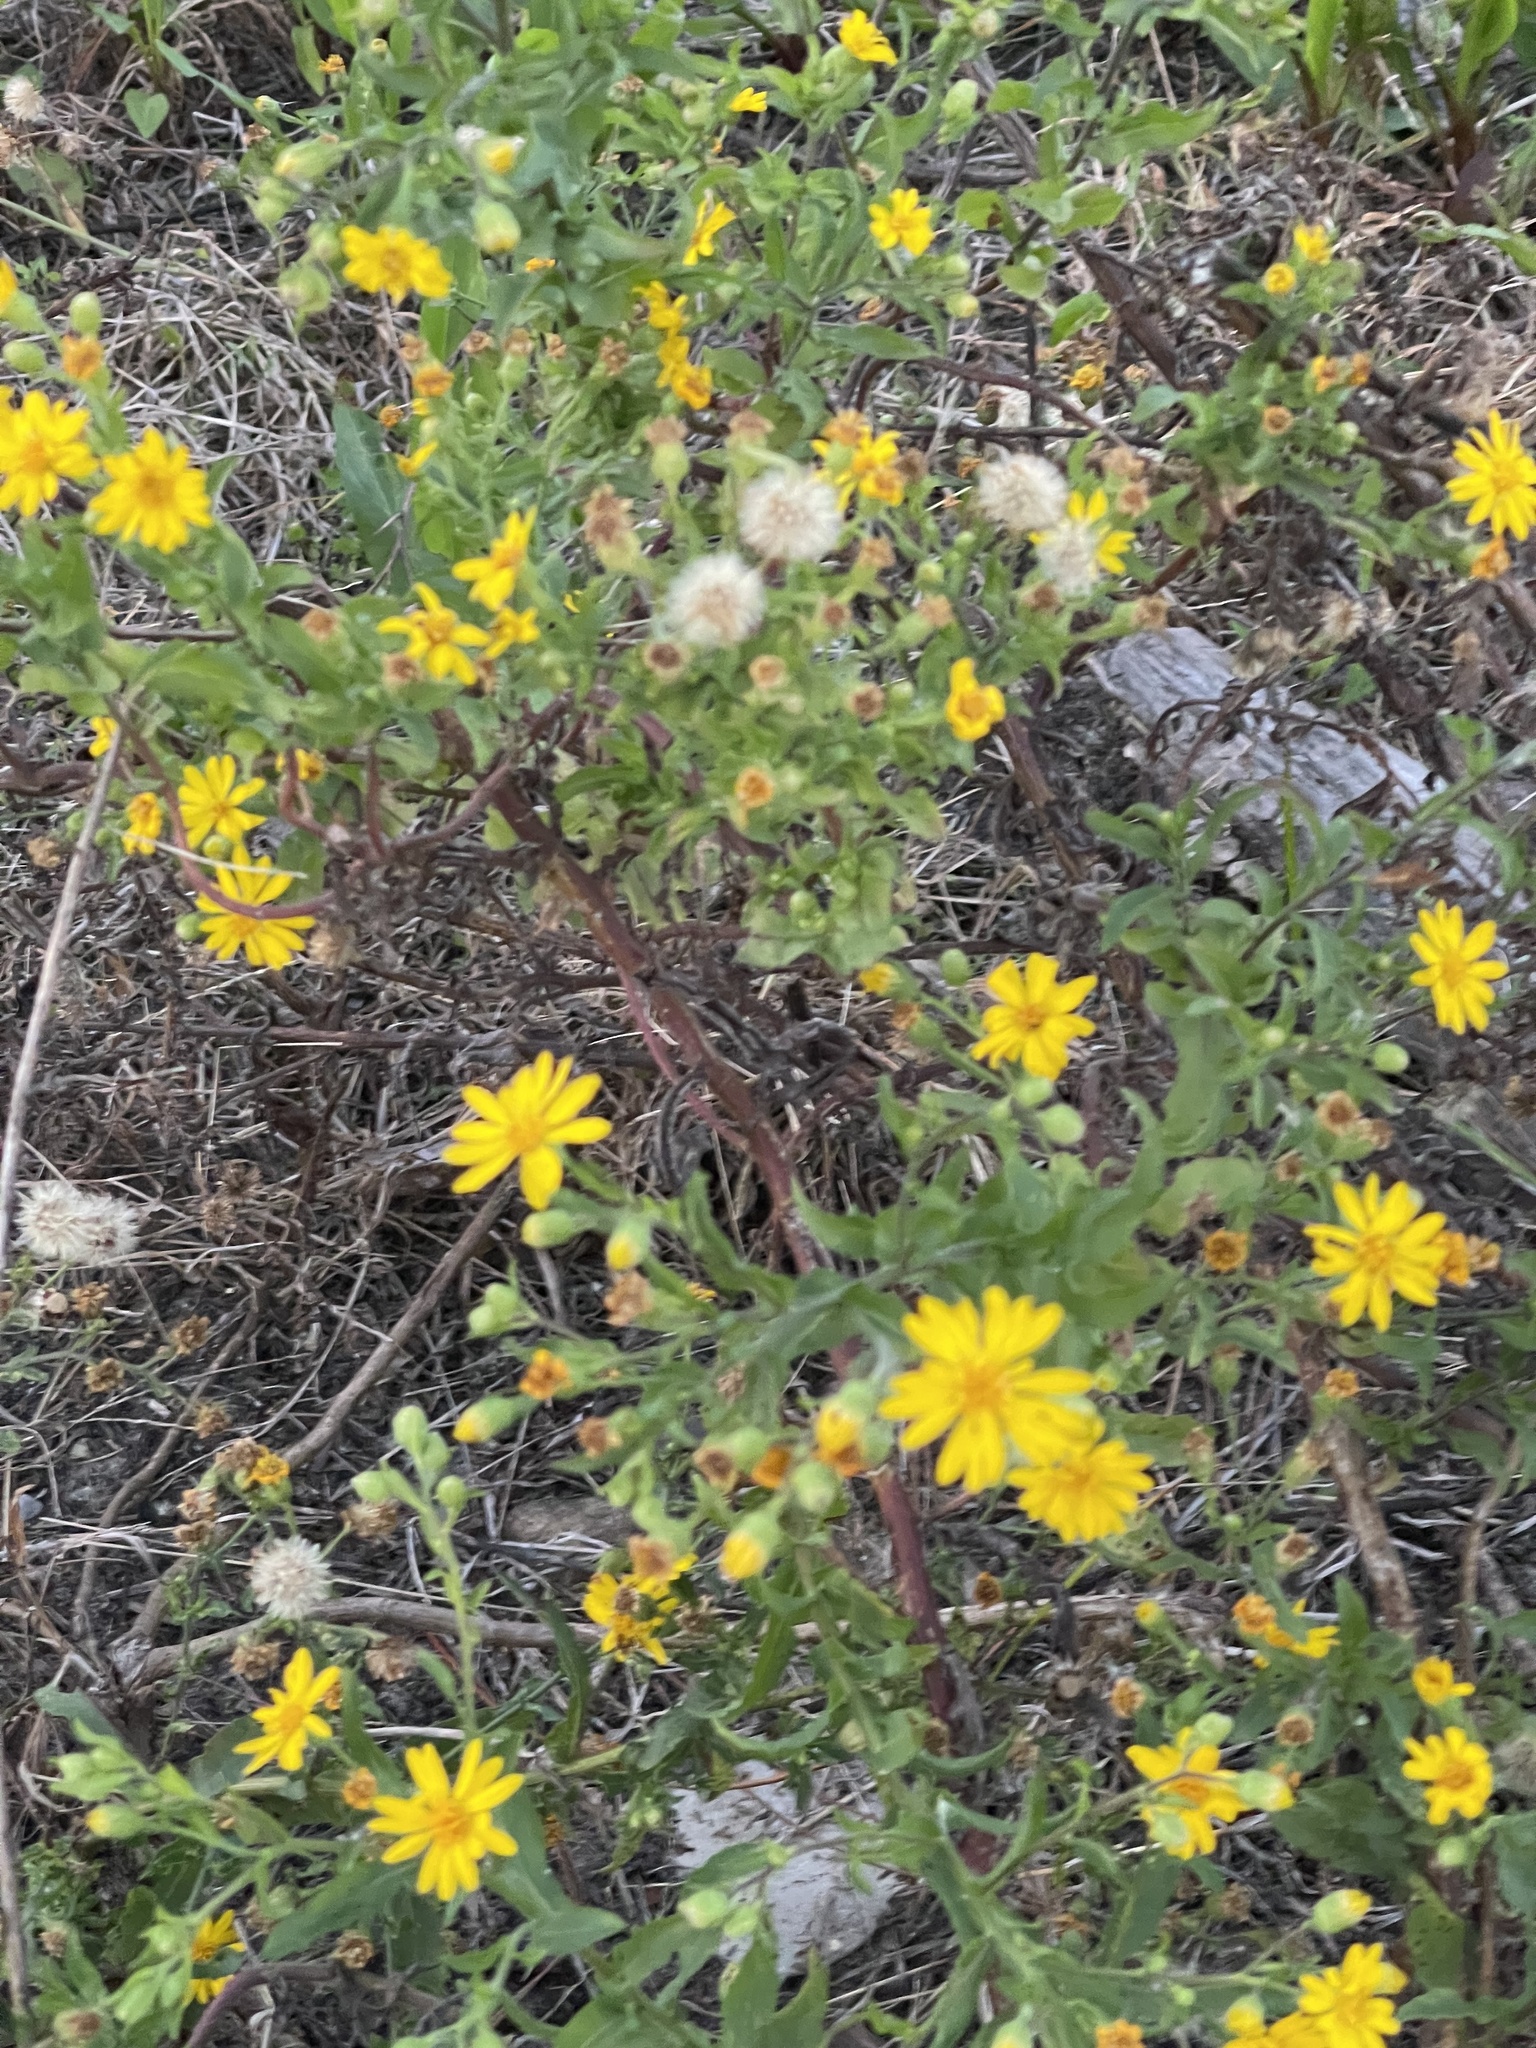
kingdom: Plantae
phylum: Tracheophyta
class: Magnoliopsida
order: Asterales
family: Asteraceae
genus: Heterotheca
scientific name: Heterotheca subaxillaris
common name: Camphorweed
